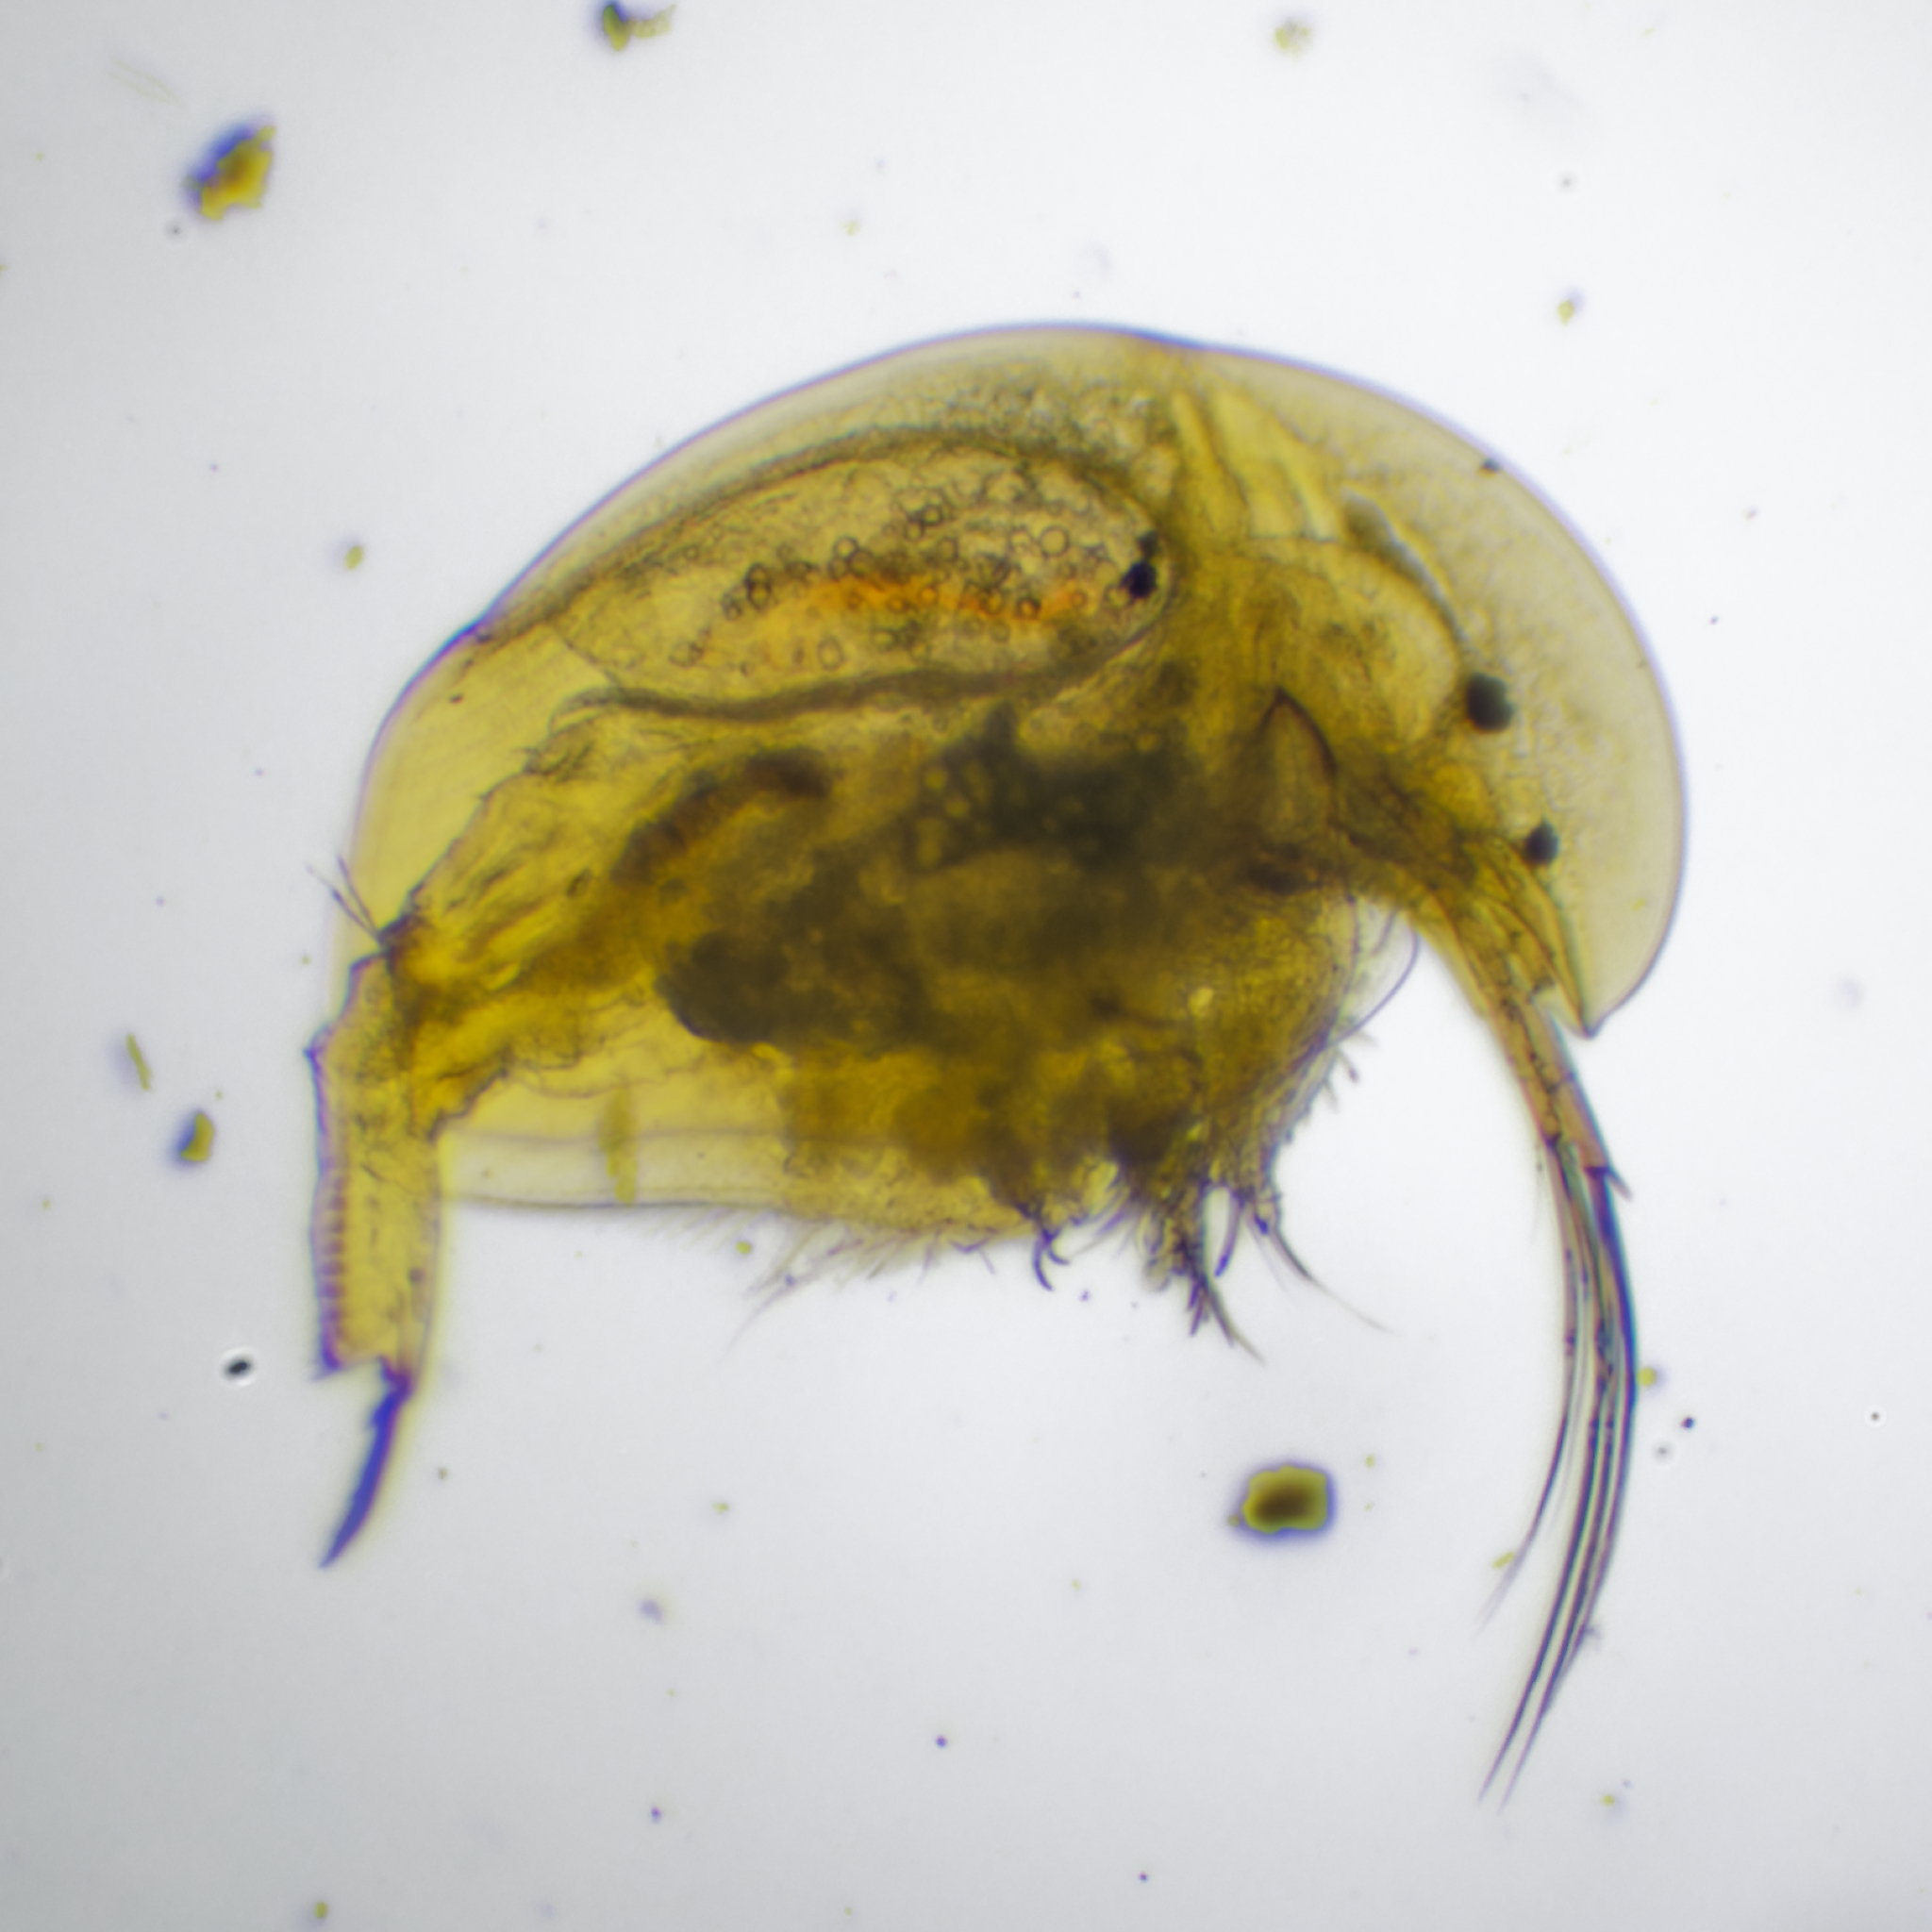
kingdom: Animalia
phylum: Arthropoda
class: Branchiopoda
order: Diplostraca
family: Chydoridae
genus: Acroperus
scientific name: Acroperus harpae
